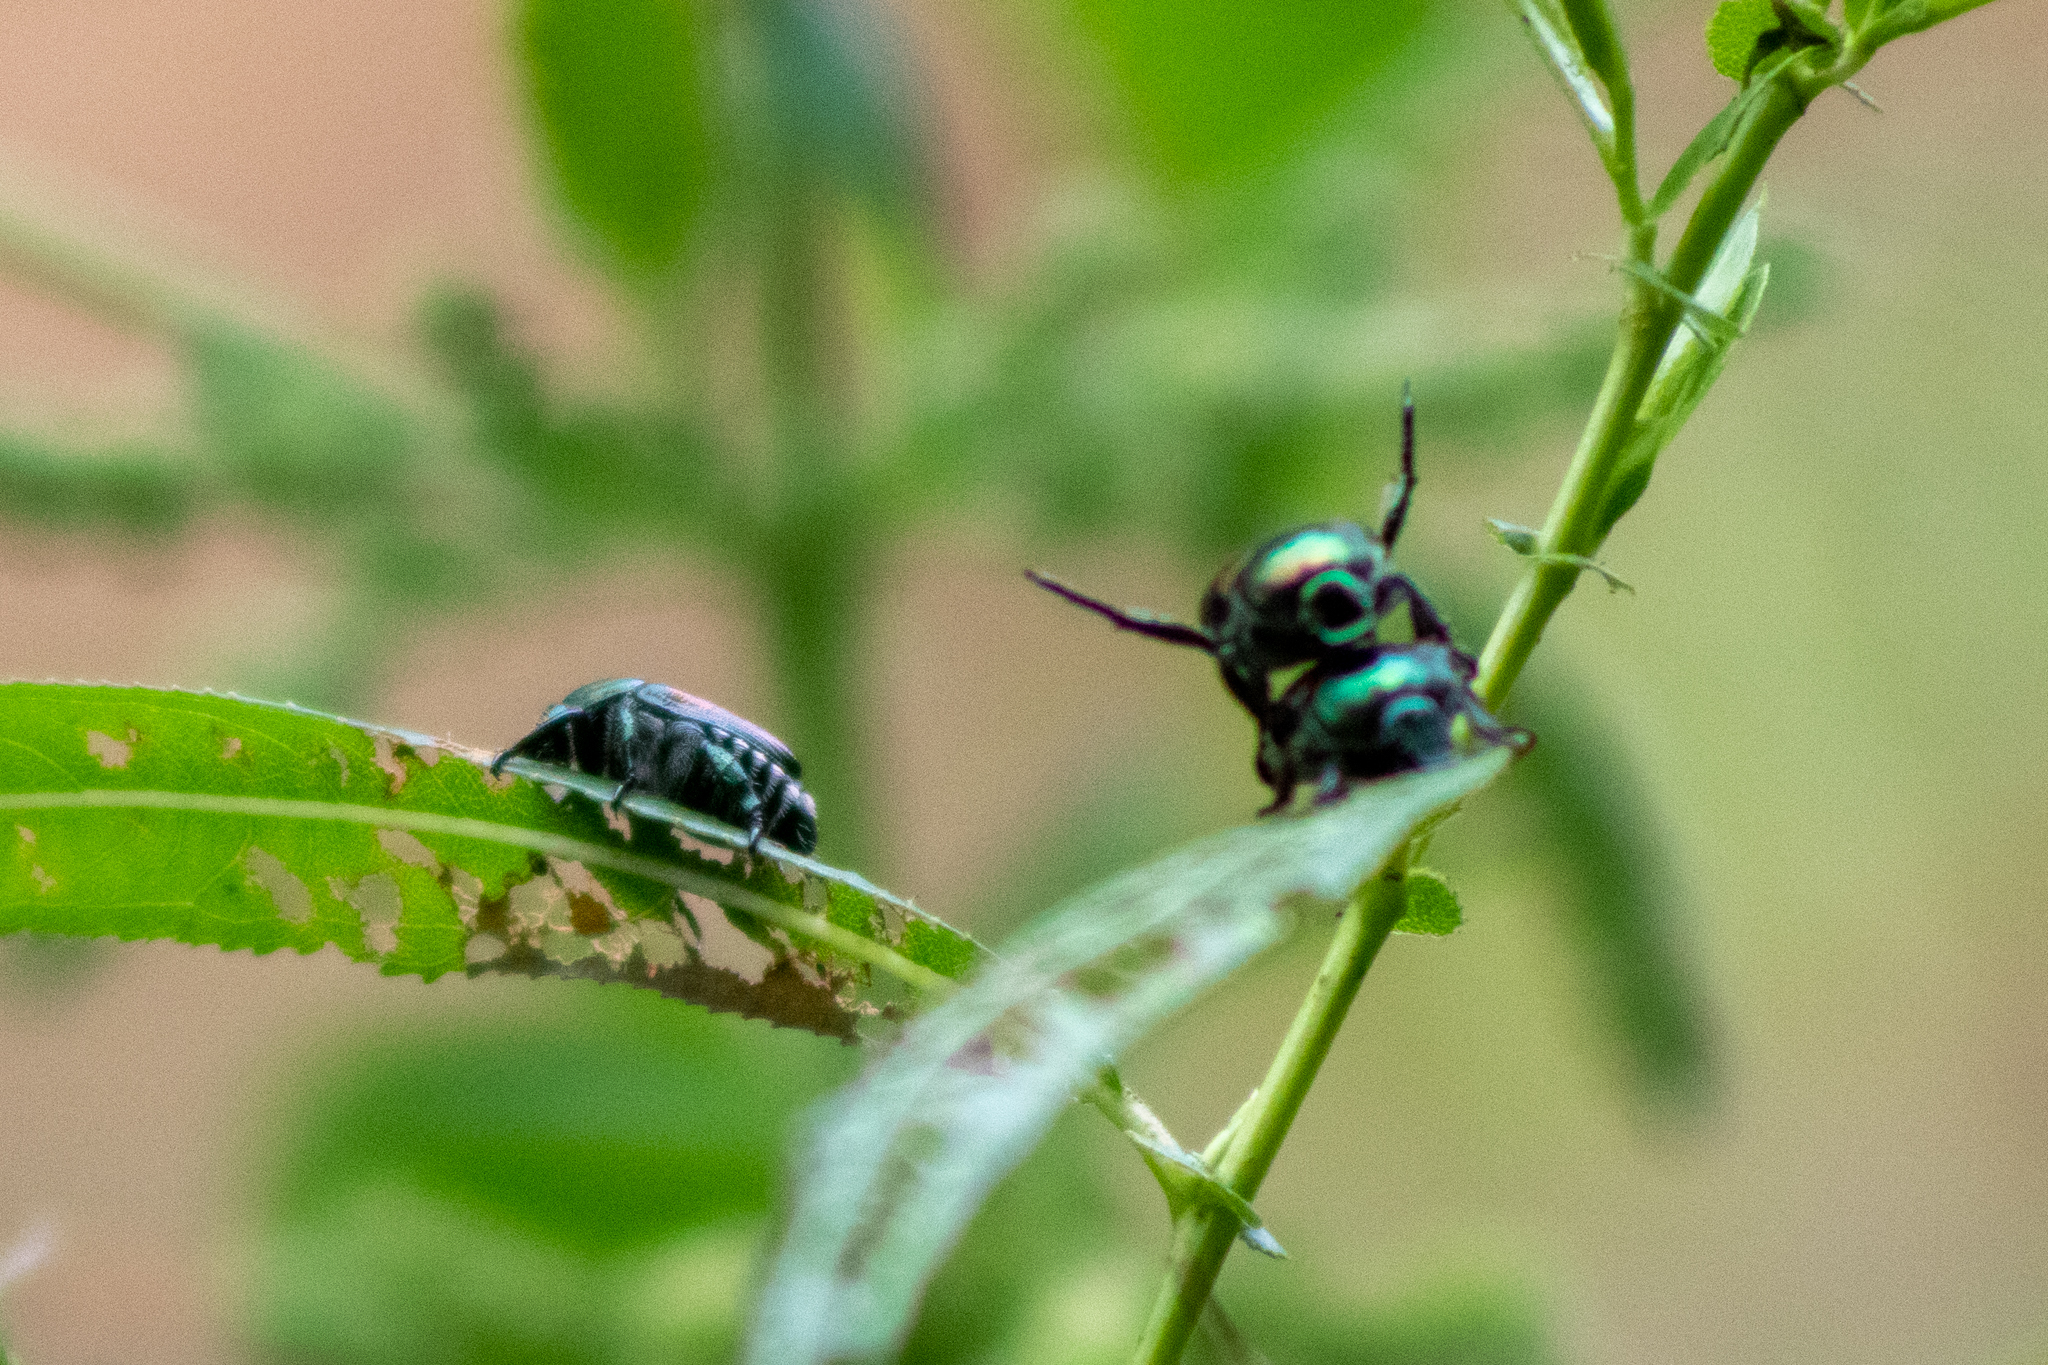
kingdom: Animalia
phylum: Arthropoda
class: Insecta
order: Coleoptera
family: Scarabaeidae
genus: Popillia
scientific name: Popillia japonica
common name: Japanese beetle
